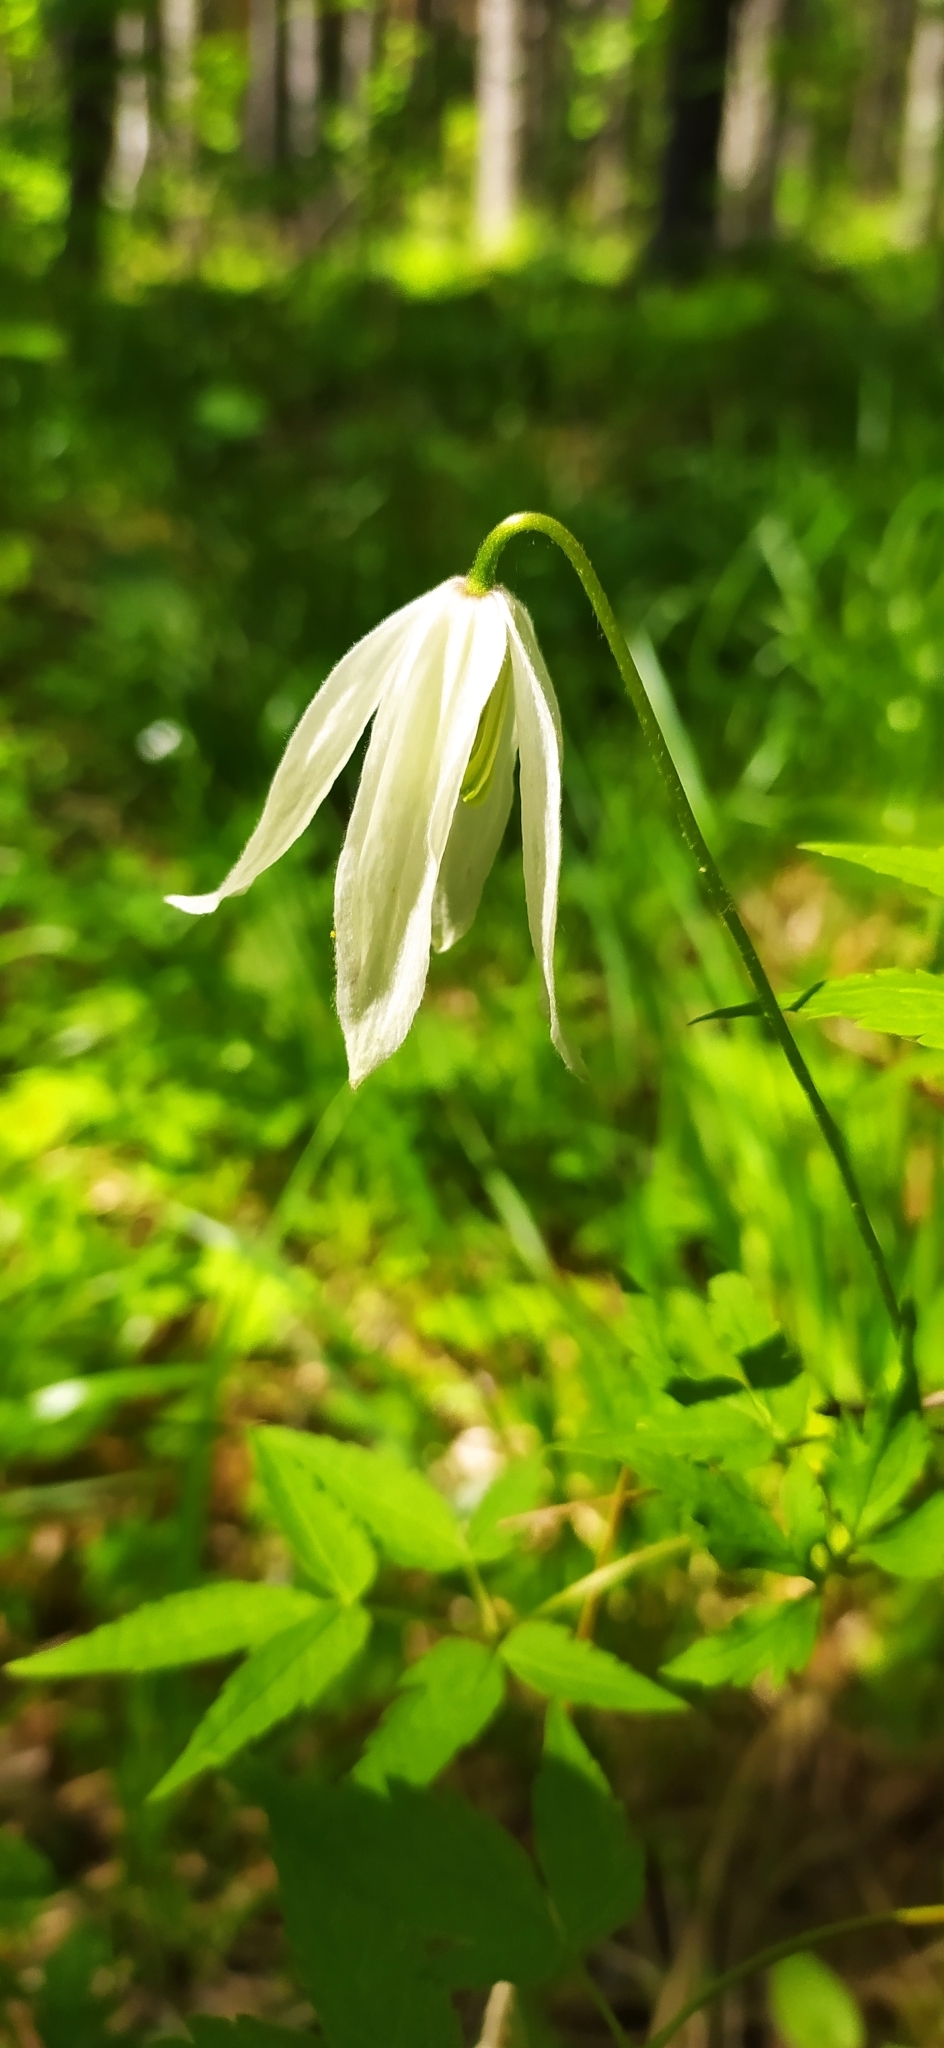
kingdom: Plantae
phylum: Tracheophyta
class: Magnoliopsida
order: Ranunculales
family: Ranunculaceae
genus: Clematis
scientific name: Clematis sibirica
